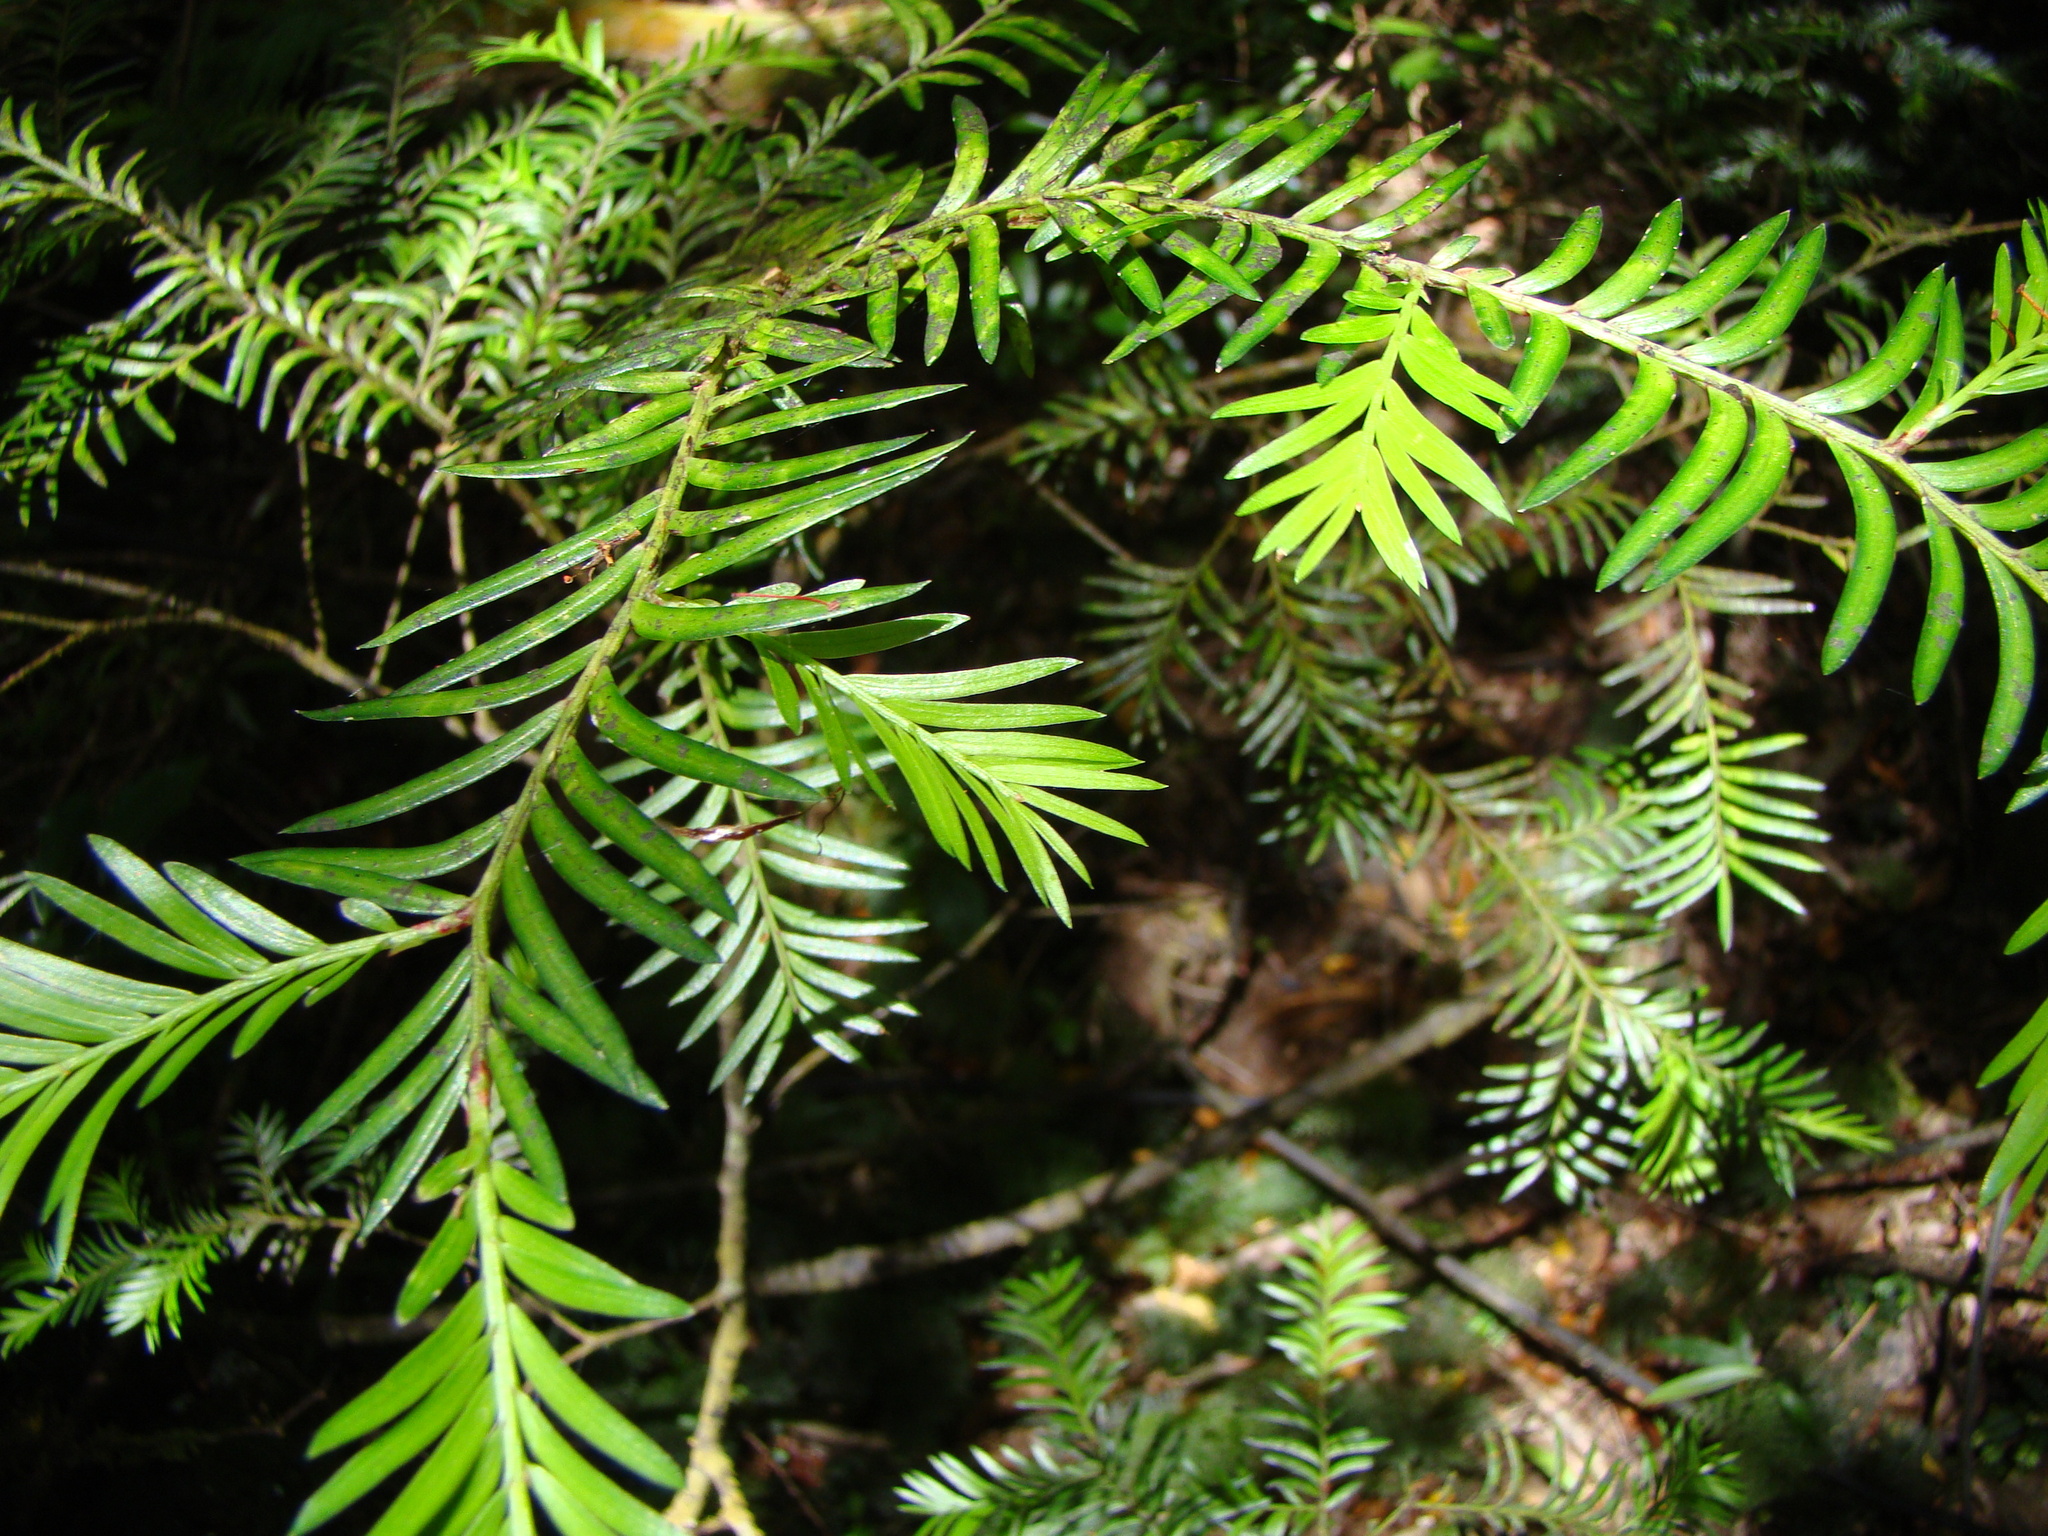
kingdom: Plantae
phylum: Tracheophyta
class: Pinopsida
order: Pinales
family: Podocarpaceae
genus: Prumnopitys
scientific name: Prumnopitys ferruginea
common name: Brown pine
